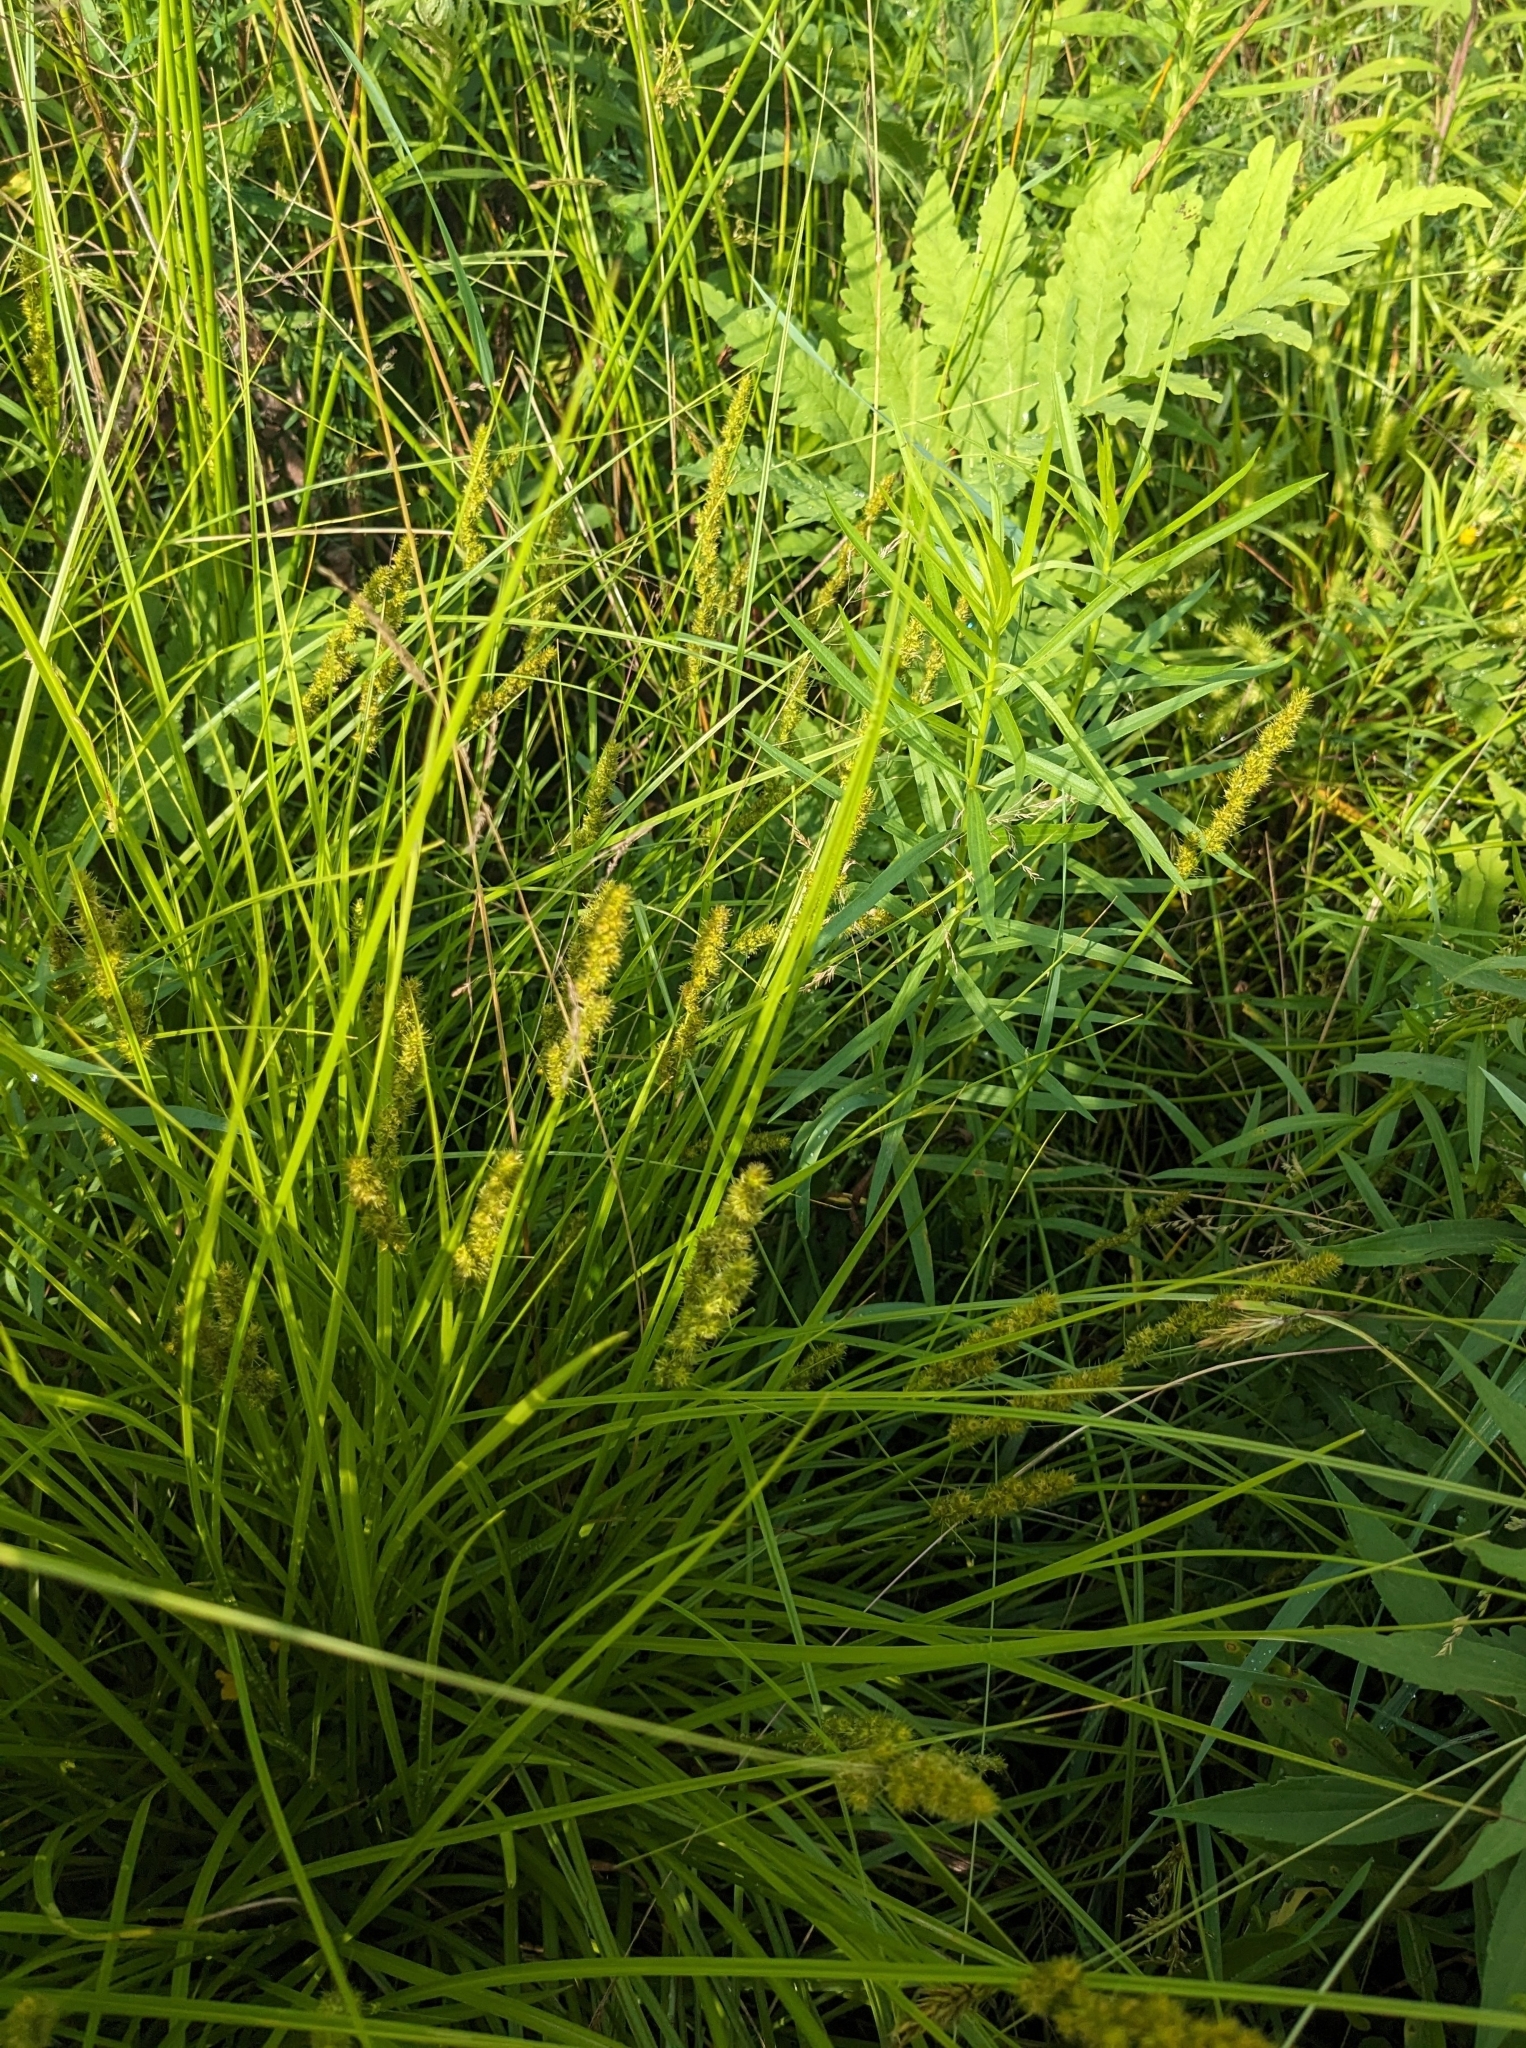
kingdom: Plantae
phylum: Tracheophyta
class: Liliopsida
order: Poales
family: Cyperaceae
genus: Carex
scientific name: Carex vulpinoidea
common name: American fox-sedge
